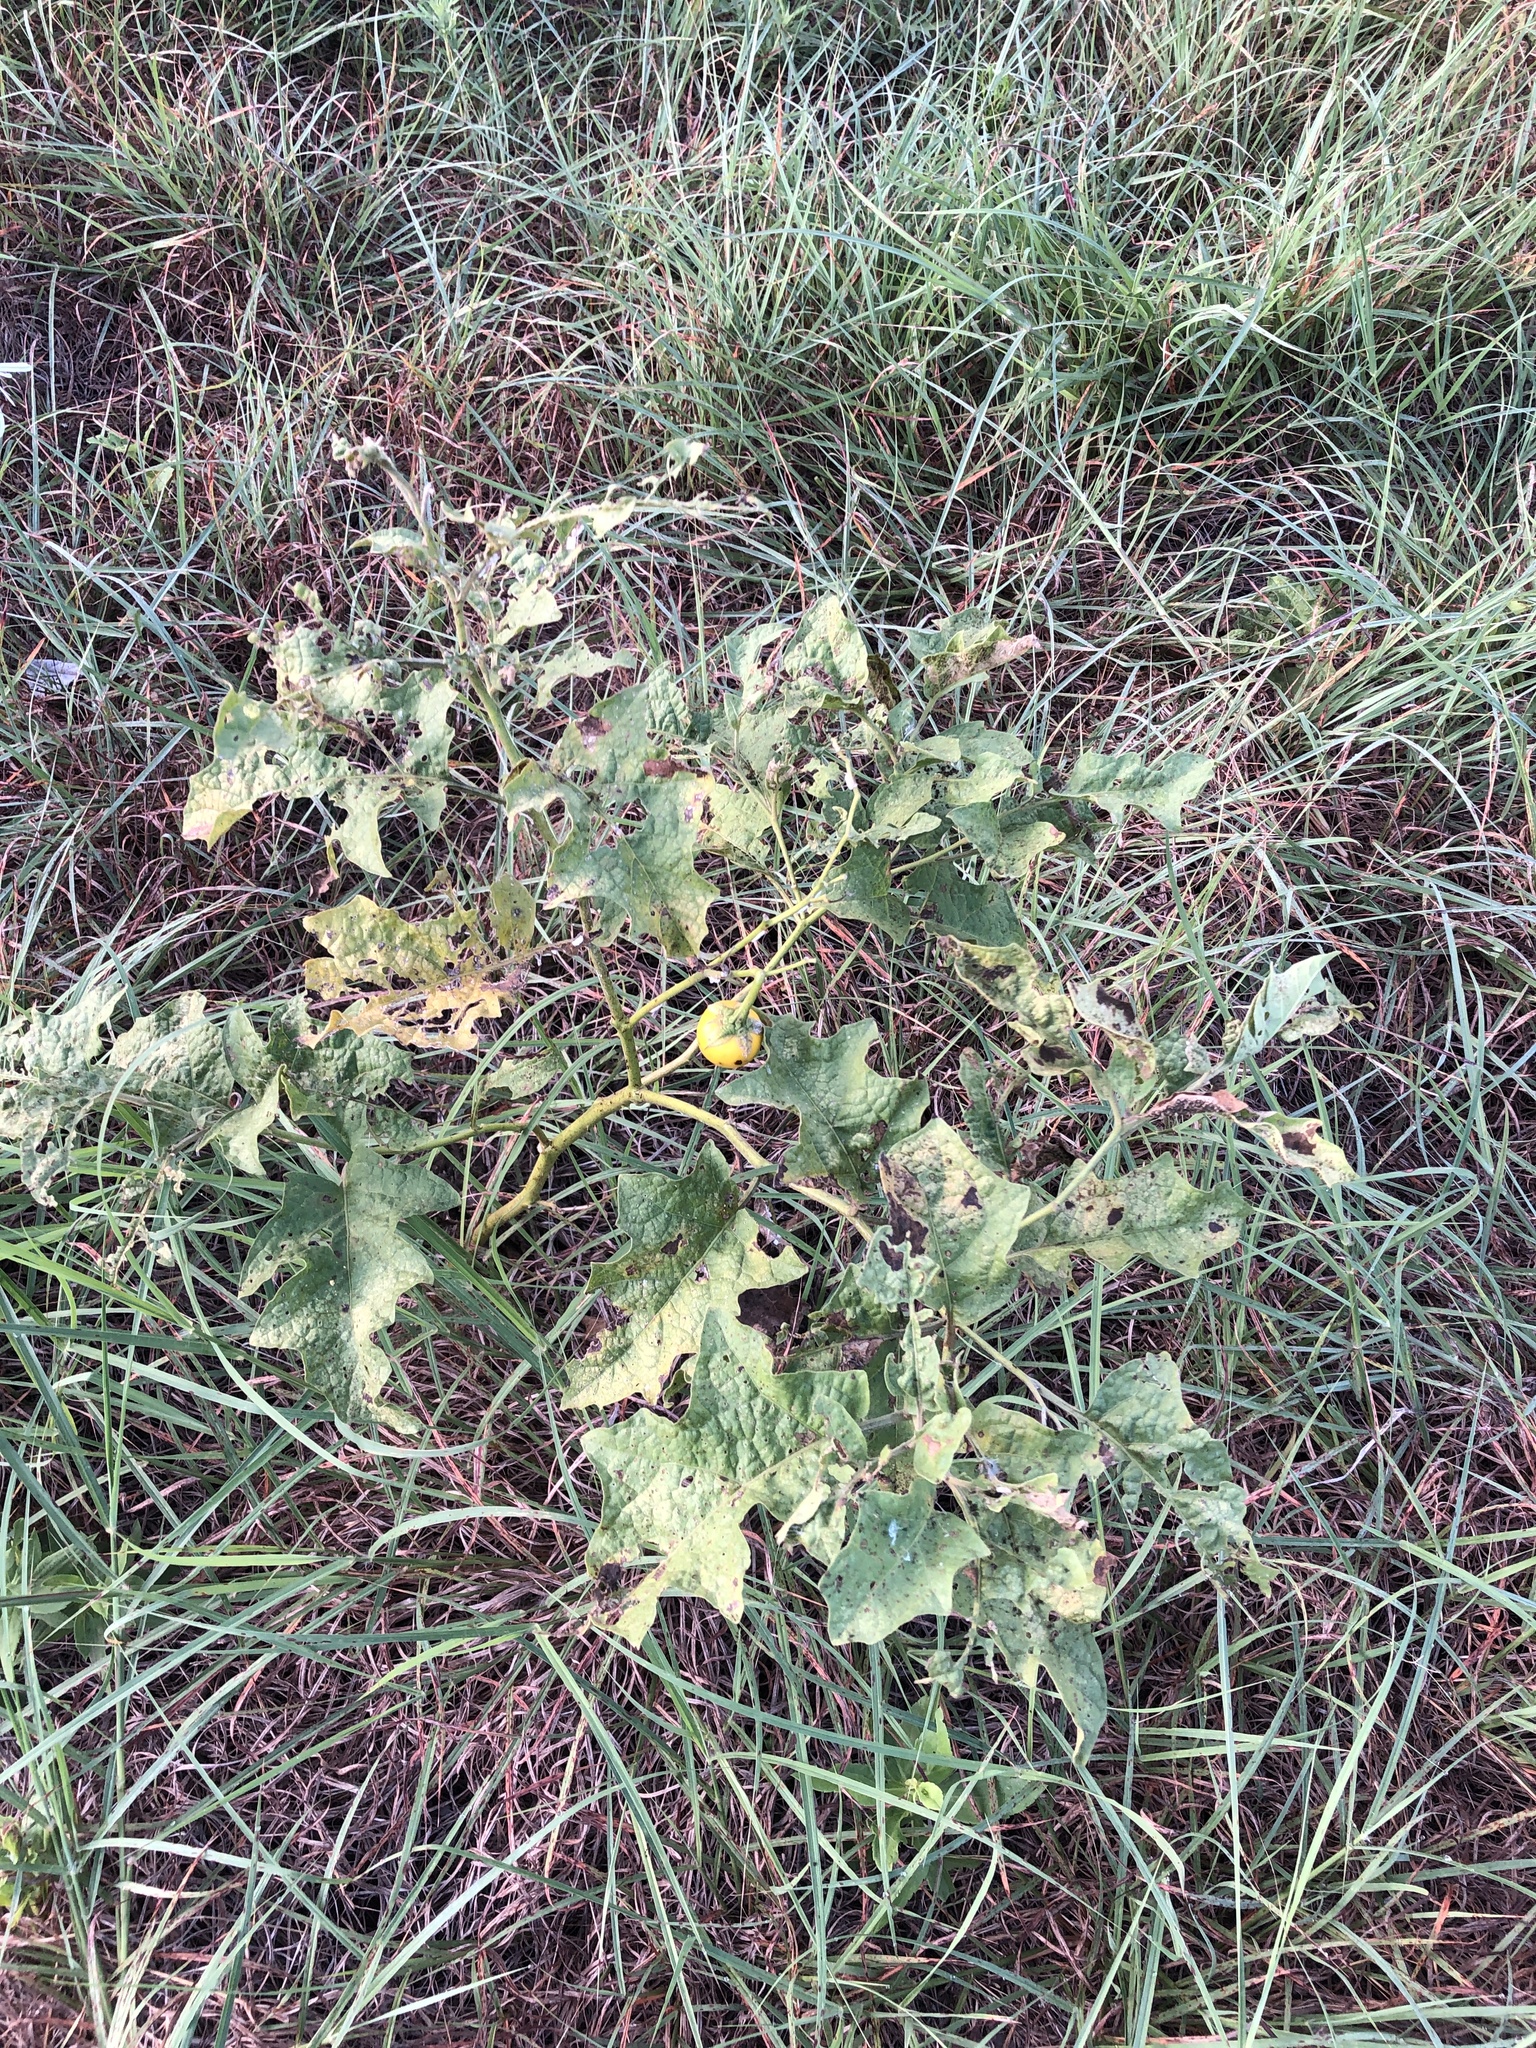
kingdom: Plantae
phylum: Tracheophyta
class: Magnoliopsida
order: Solanales
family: Solanaceae
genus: Solanum
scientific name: Solanum dimidiatum
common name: Carolina horse-nettle
